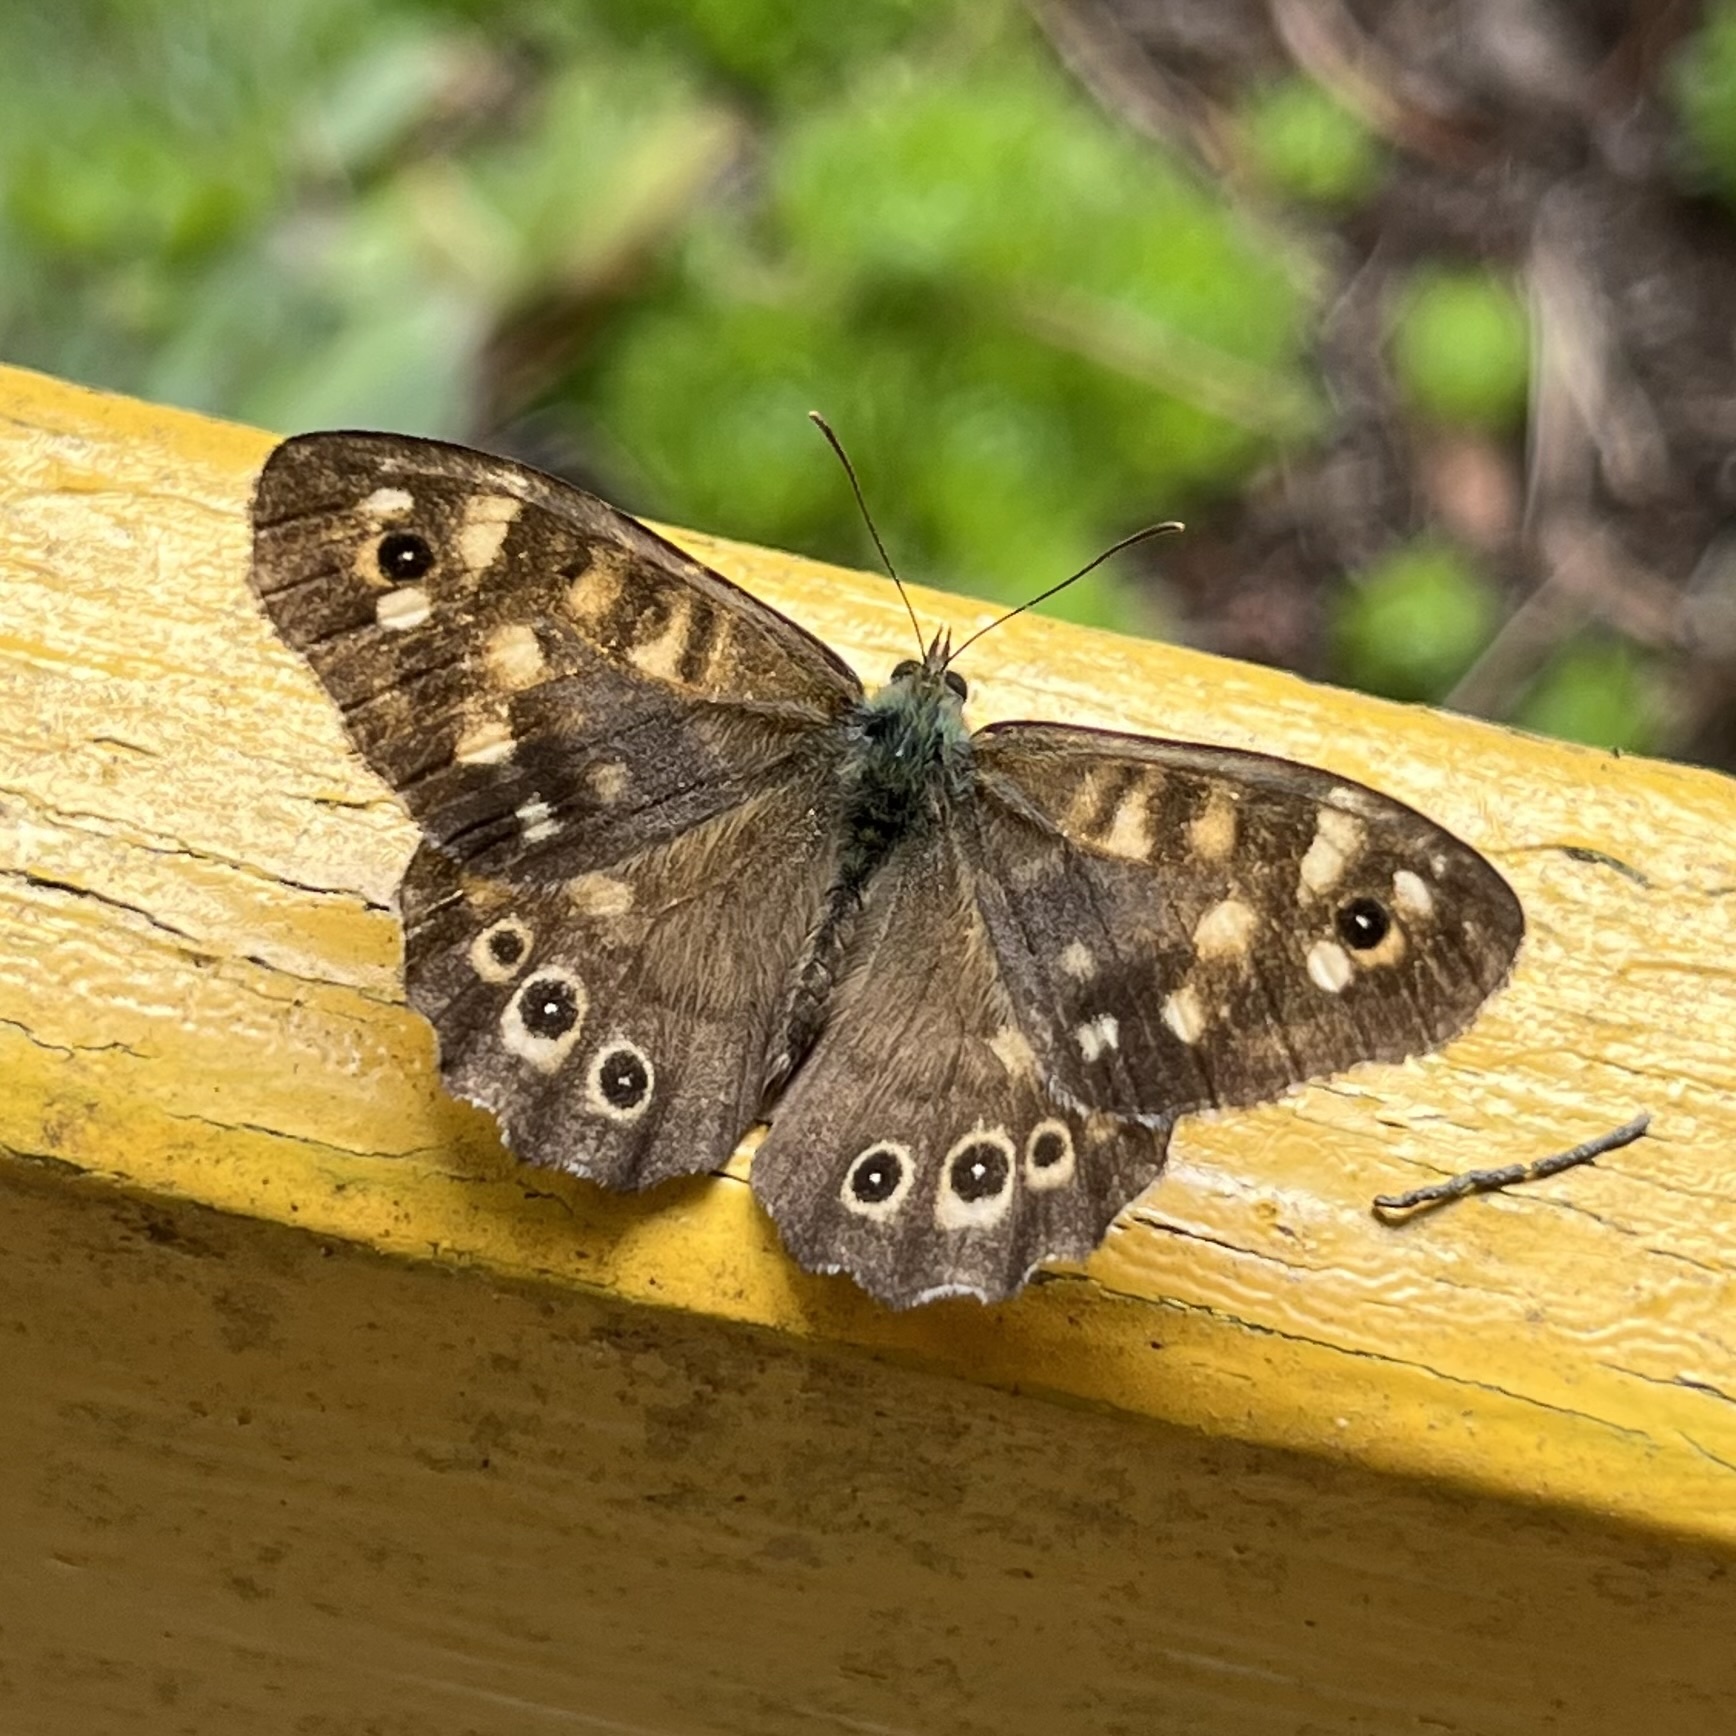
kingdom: Animalia
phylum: Arthropoda
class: Insecta
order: Lepidoptera
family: Nymphalidae
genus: Pararge
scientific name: Pararge aegeria
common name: Speckled wood
